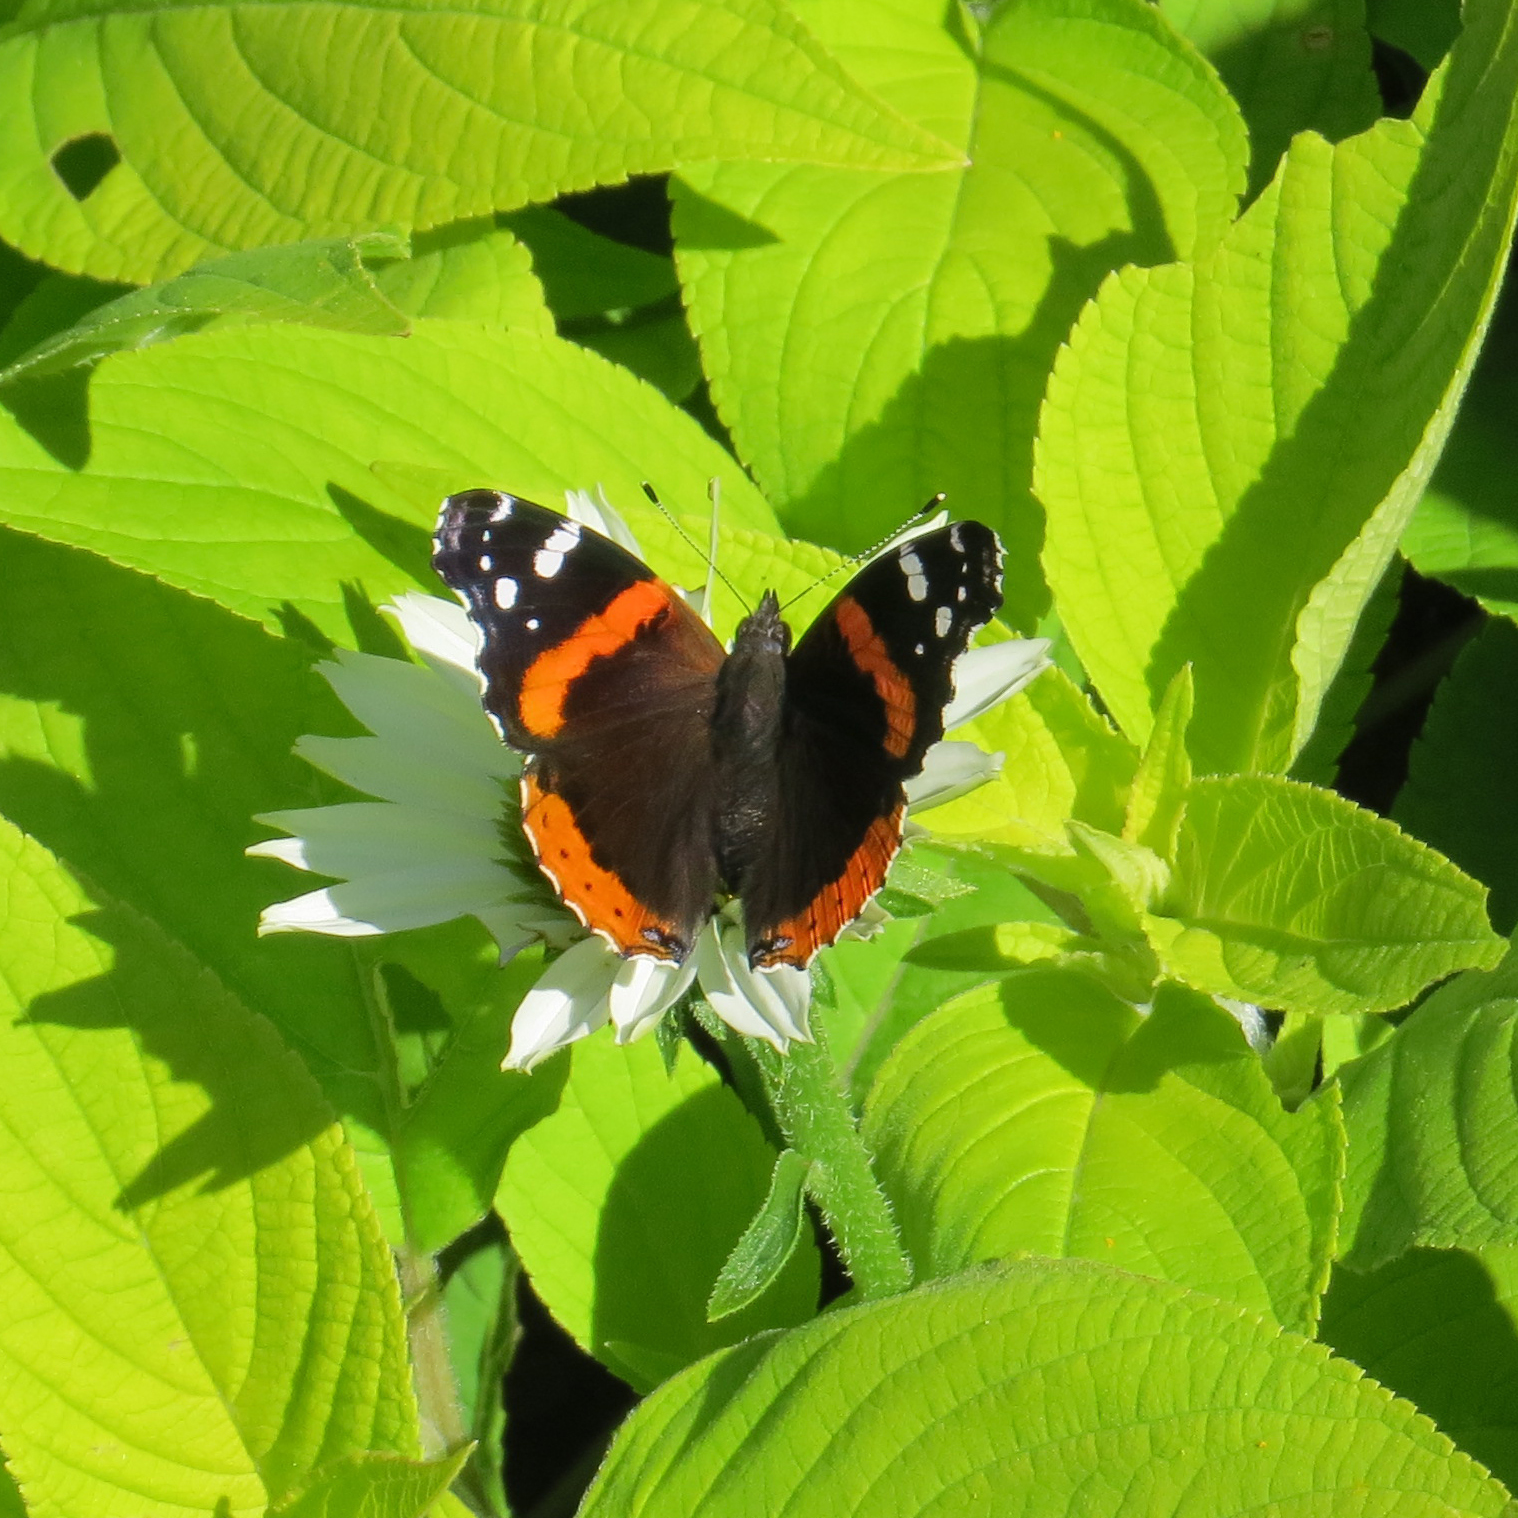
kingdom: Animalia
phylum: Arthropoda
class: Insecta
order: Lepidoptera
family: Nymphalidae
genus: Vanessa
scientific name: Vanessa atalanta
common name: Red admiral
